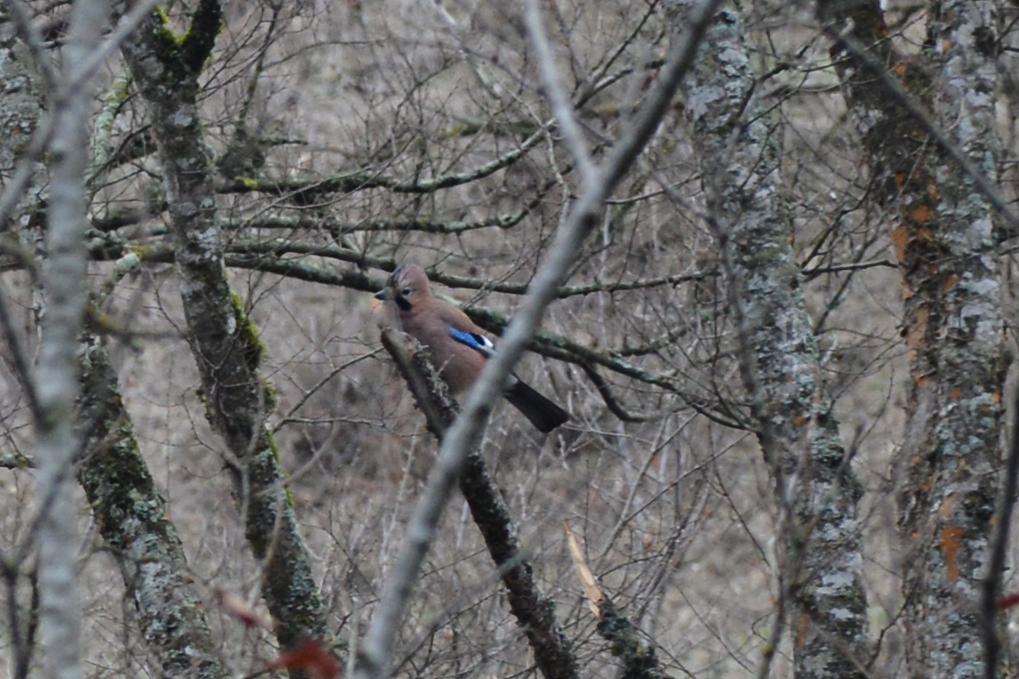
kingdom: Animalia
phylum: Chordata
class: Aves
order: Passeriformes
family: Corvidae
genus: Garrulus
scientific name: Garrulus glandarius
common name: Eurasian jay
